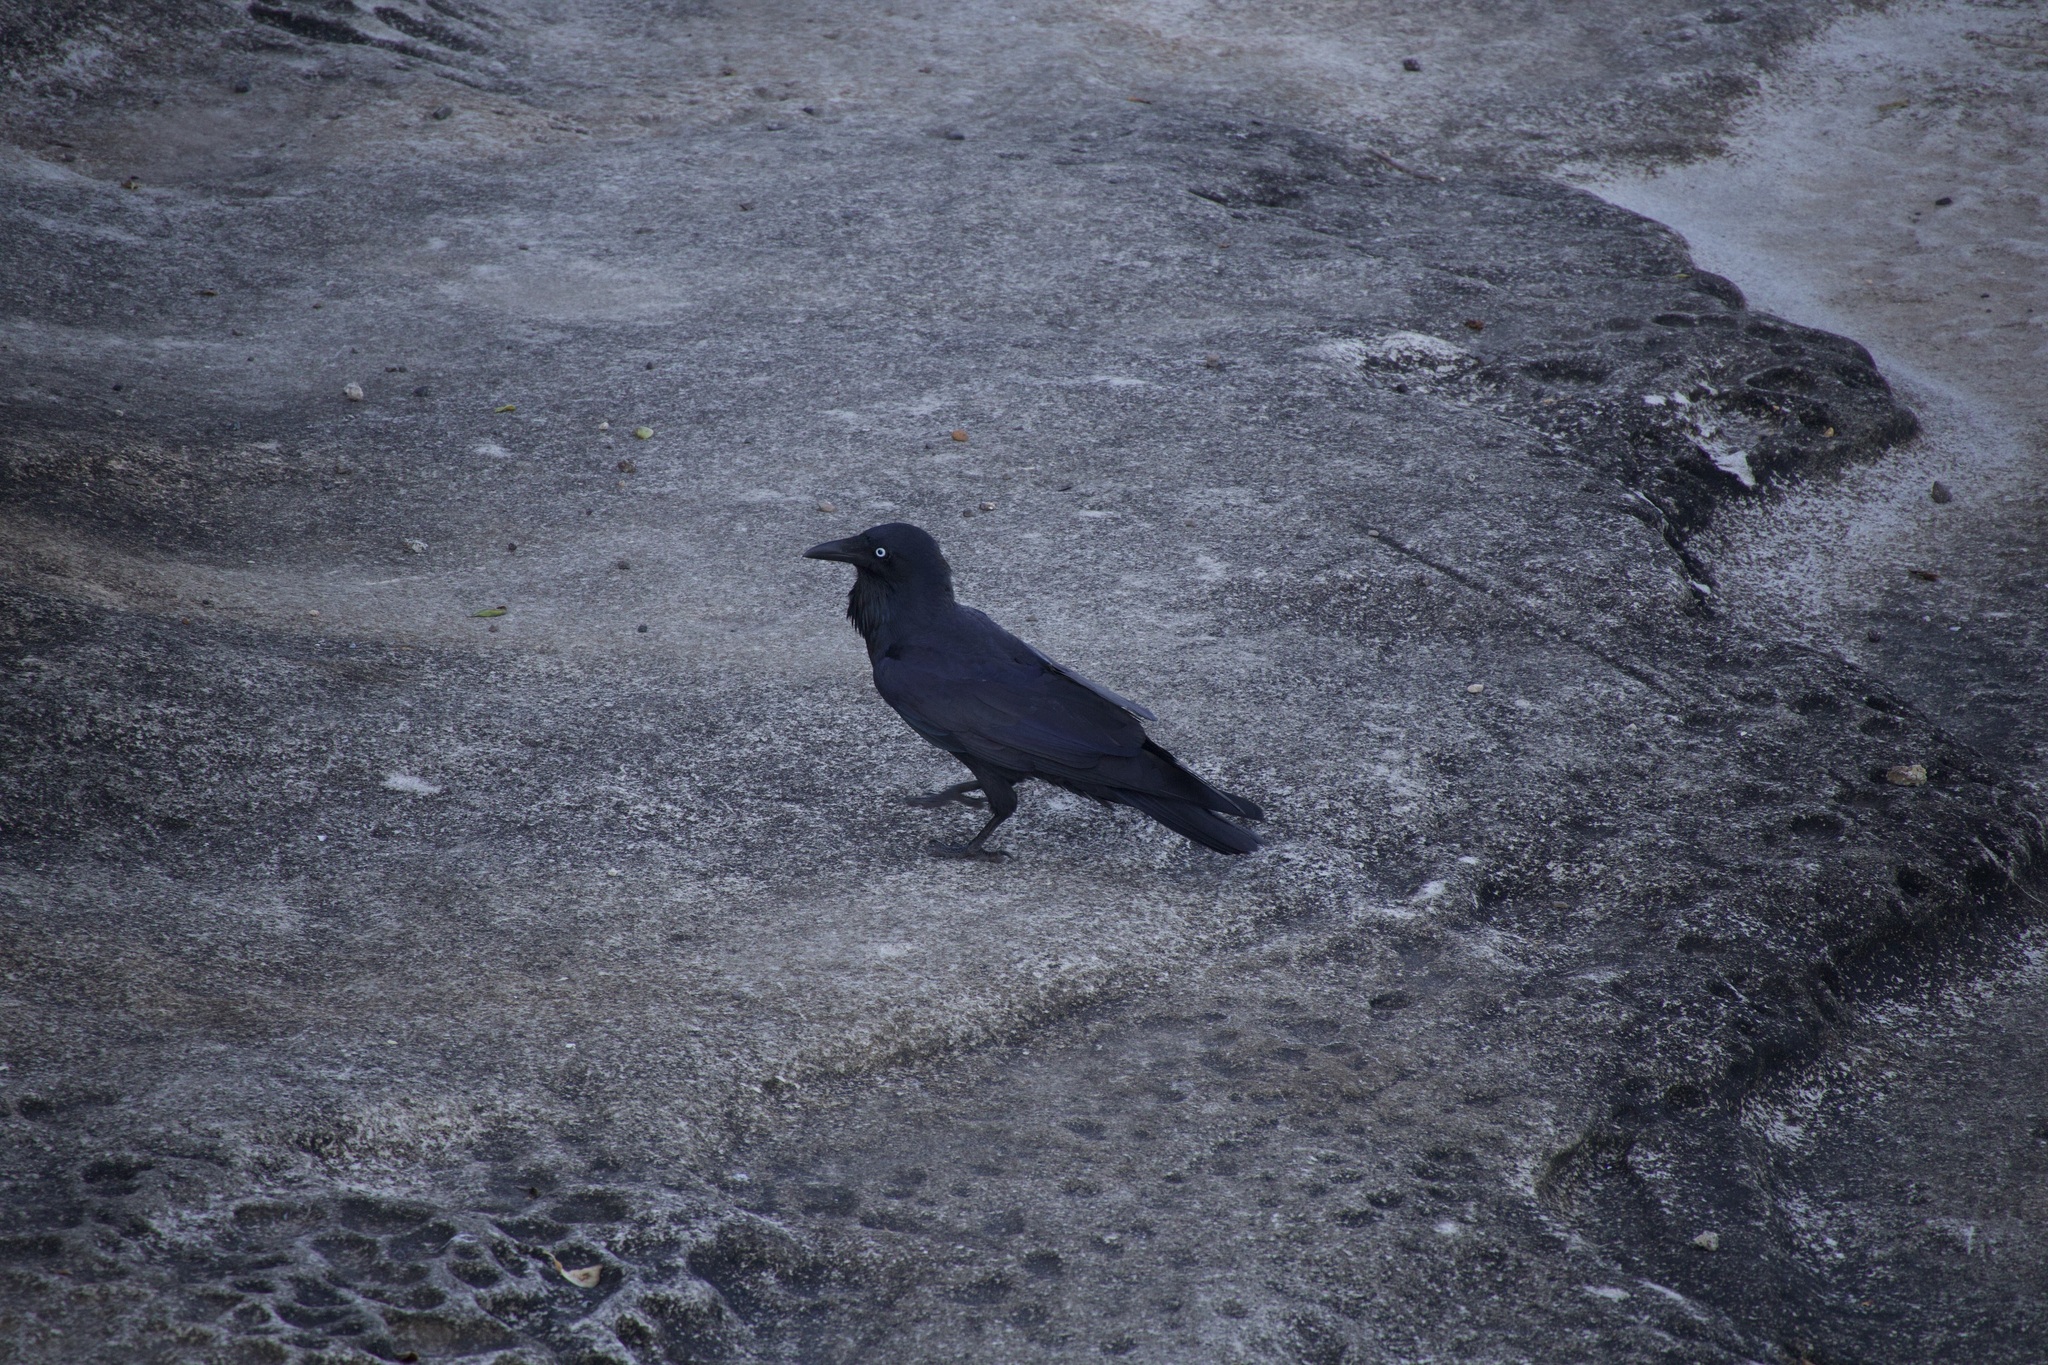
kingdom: Animalia
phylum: Chordata
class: Aves
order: Passeriformes
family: Corvidae
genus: Corvus
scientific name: Corvus coronoides
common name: Australian raven
